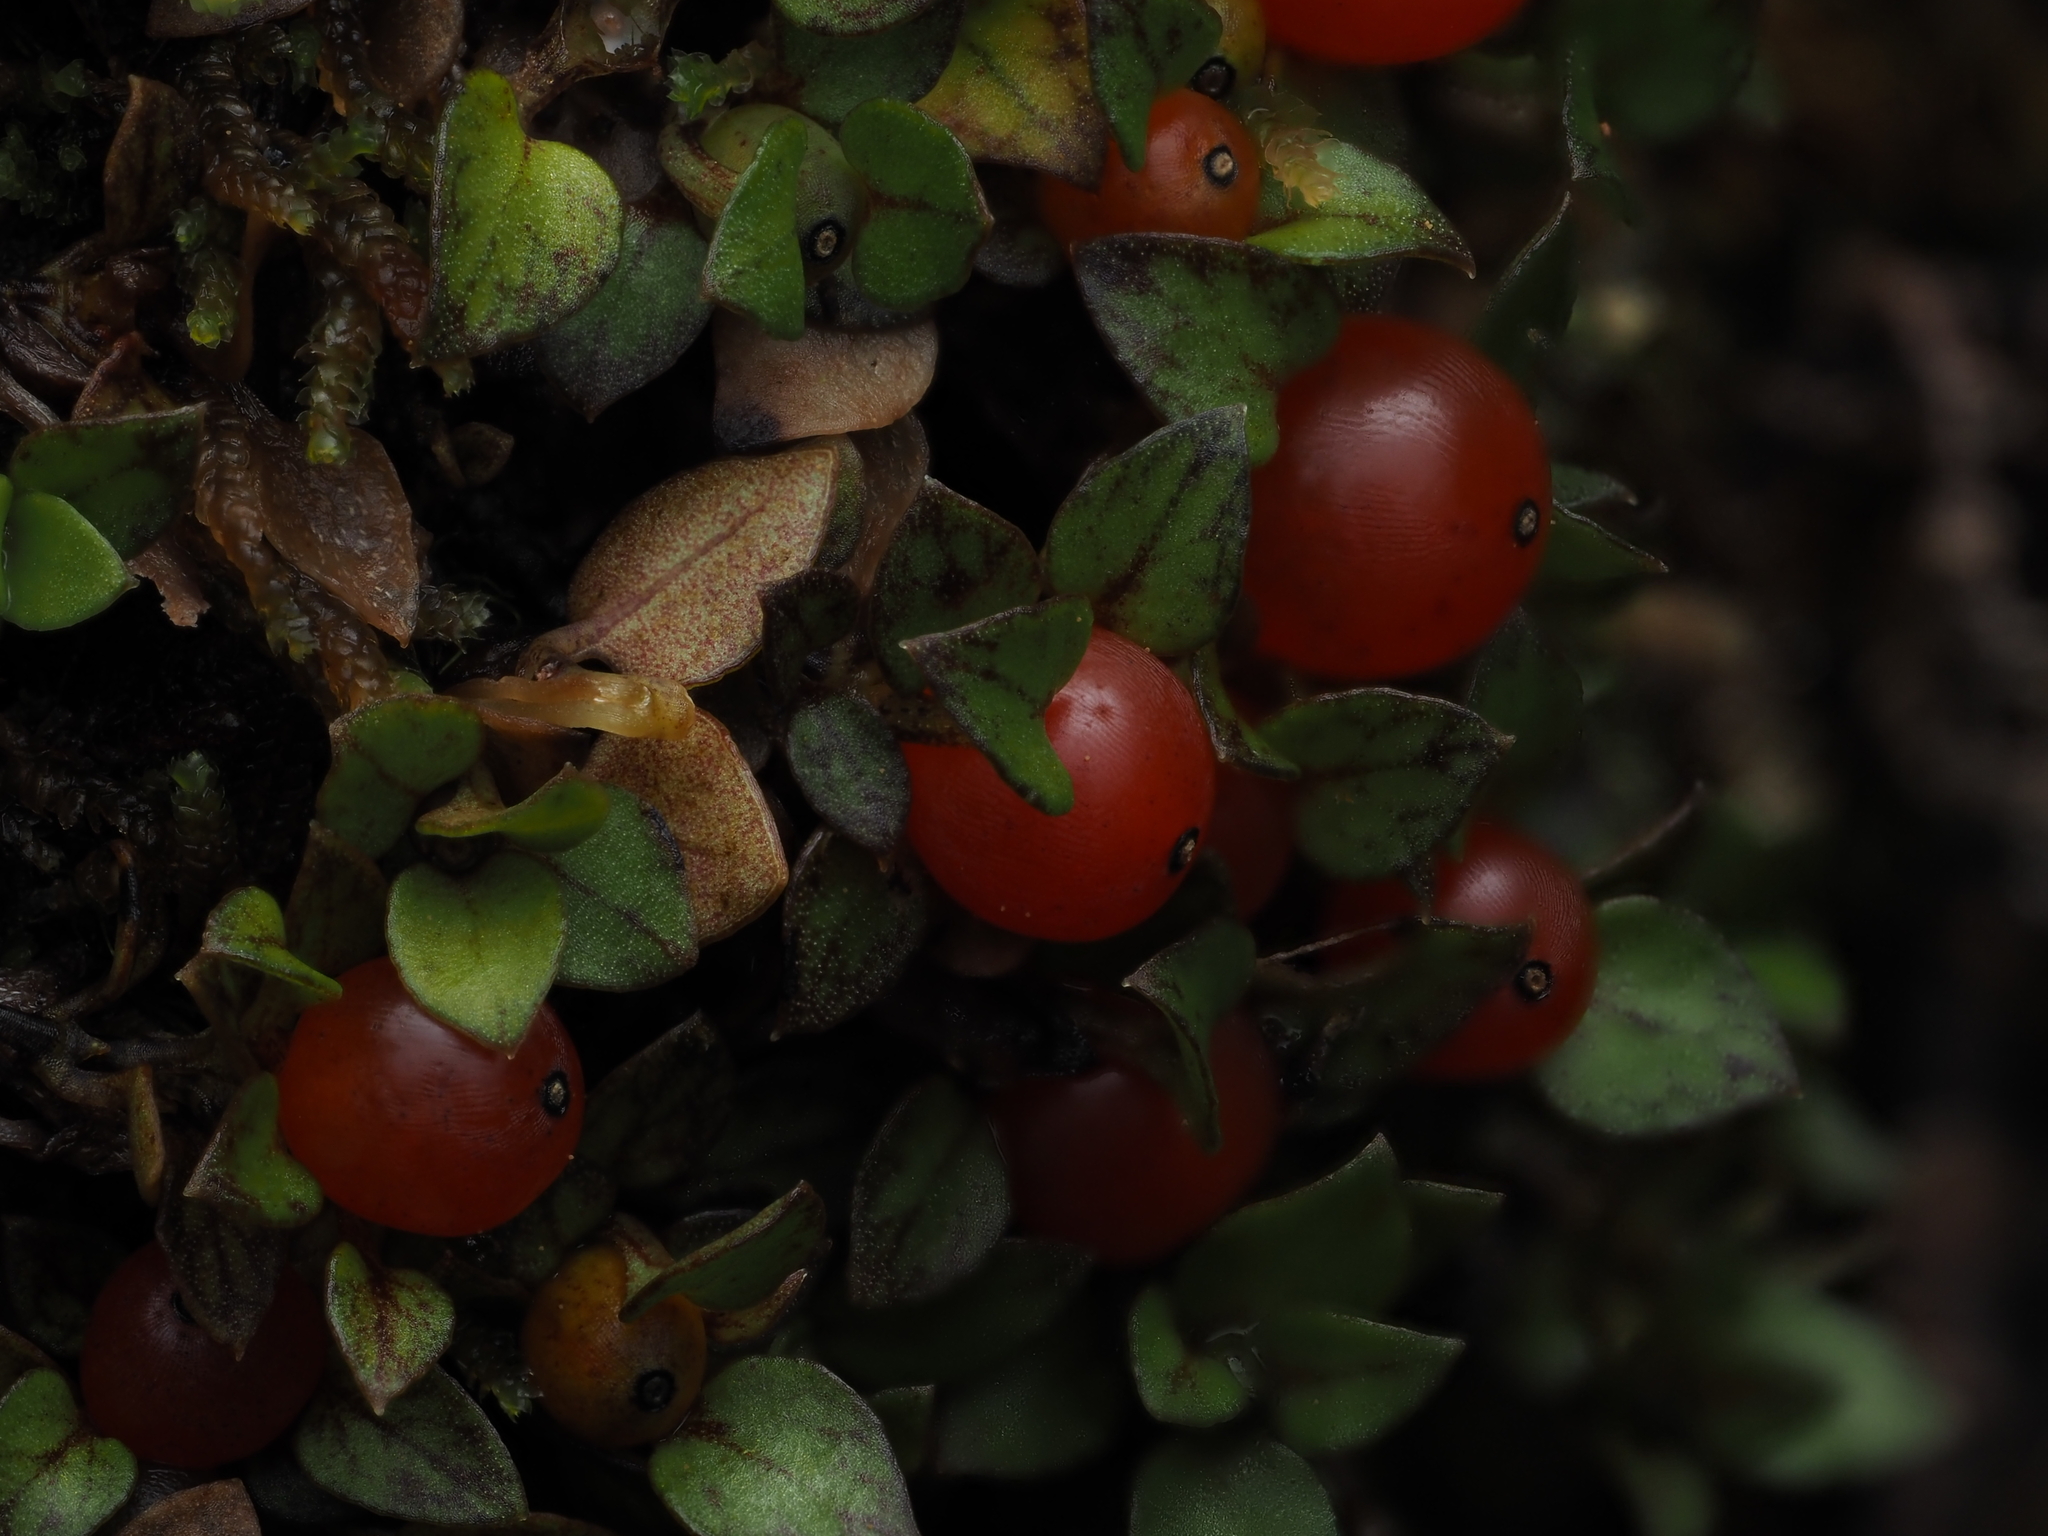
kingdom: Plantae
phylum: Tracheophyta
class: Magnoliopsida
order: Gentianales
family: Rubiaceae
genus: Nertera
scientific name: Nertera granadensis
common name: Beadplant
